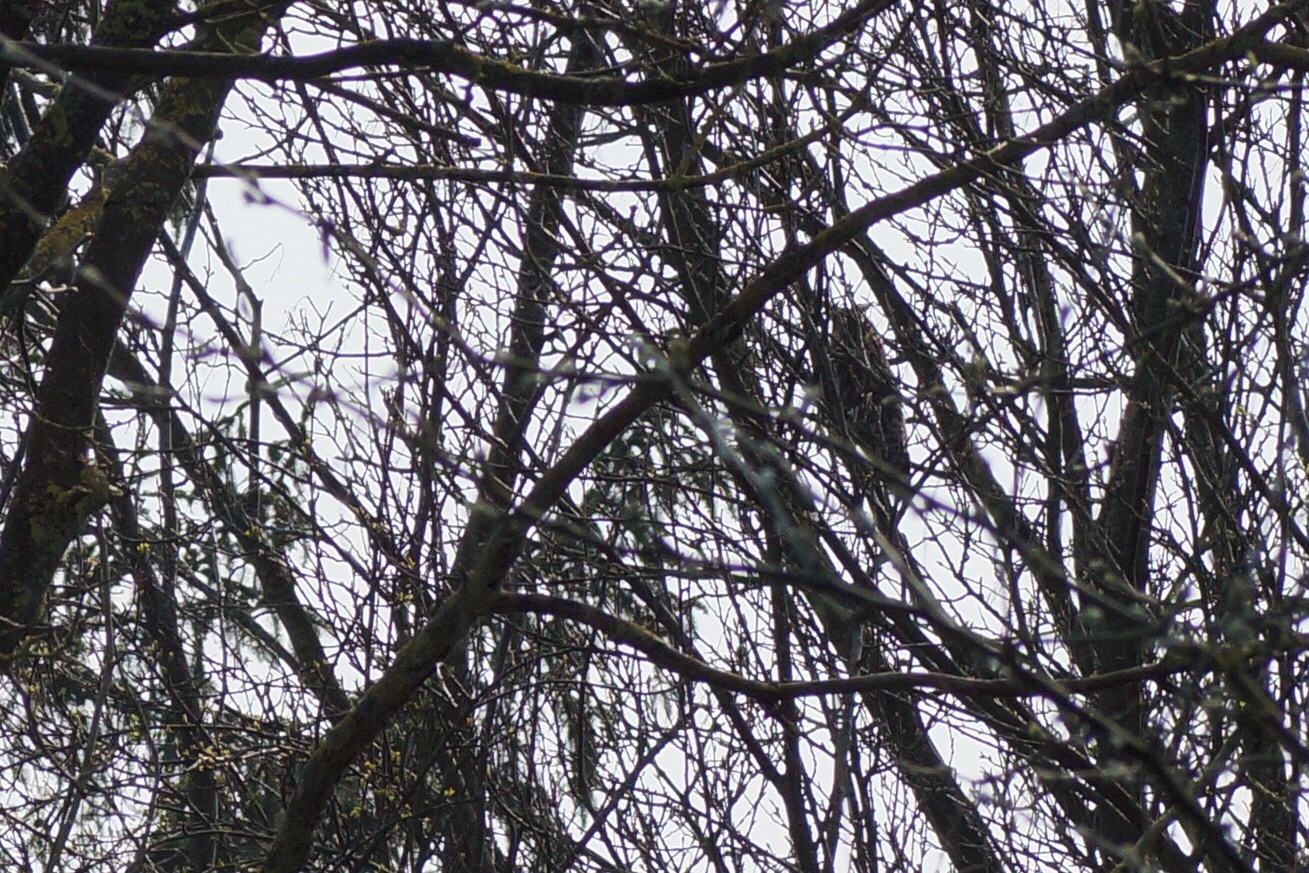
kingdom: Animalia
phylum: Chordata
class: Aves
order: Strigiformes
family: Strigidae
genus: Asio
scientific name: Asio otus
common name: Long-eared owl
